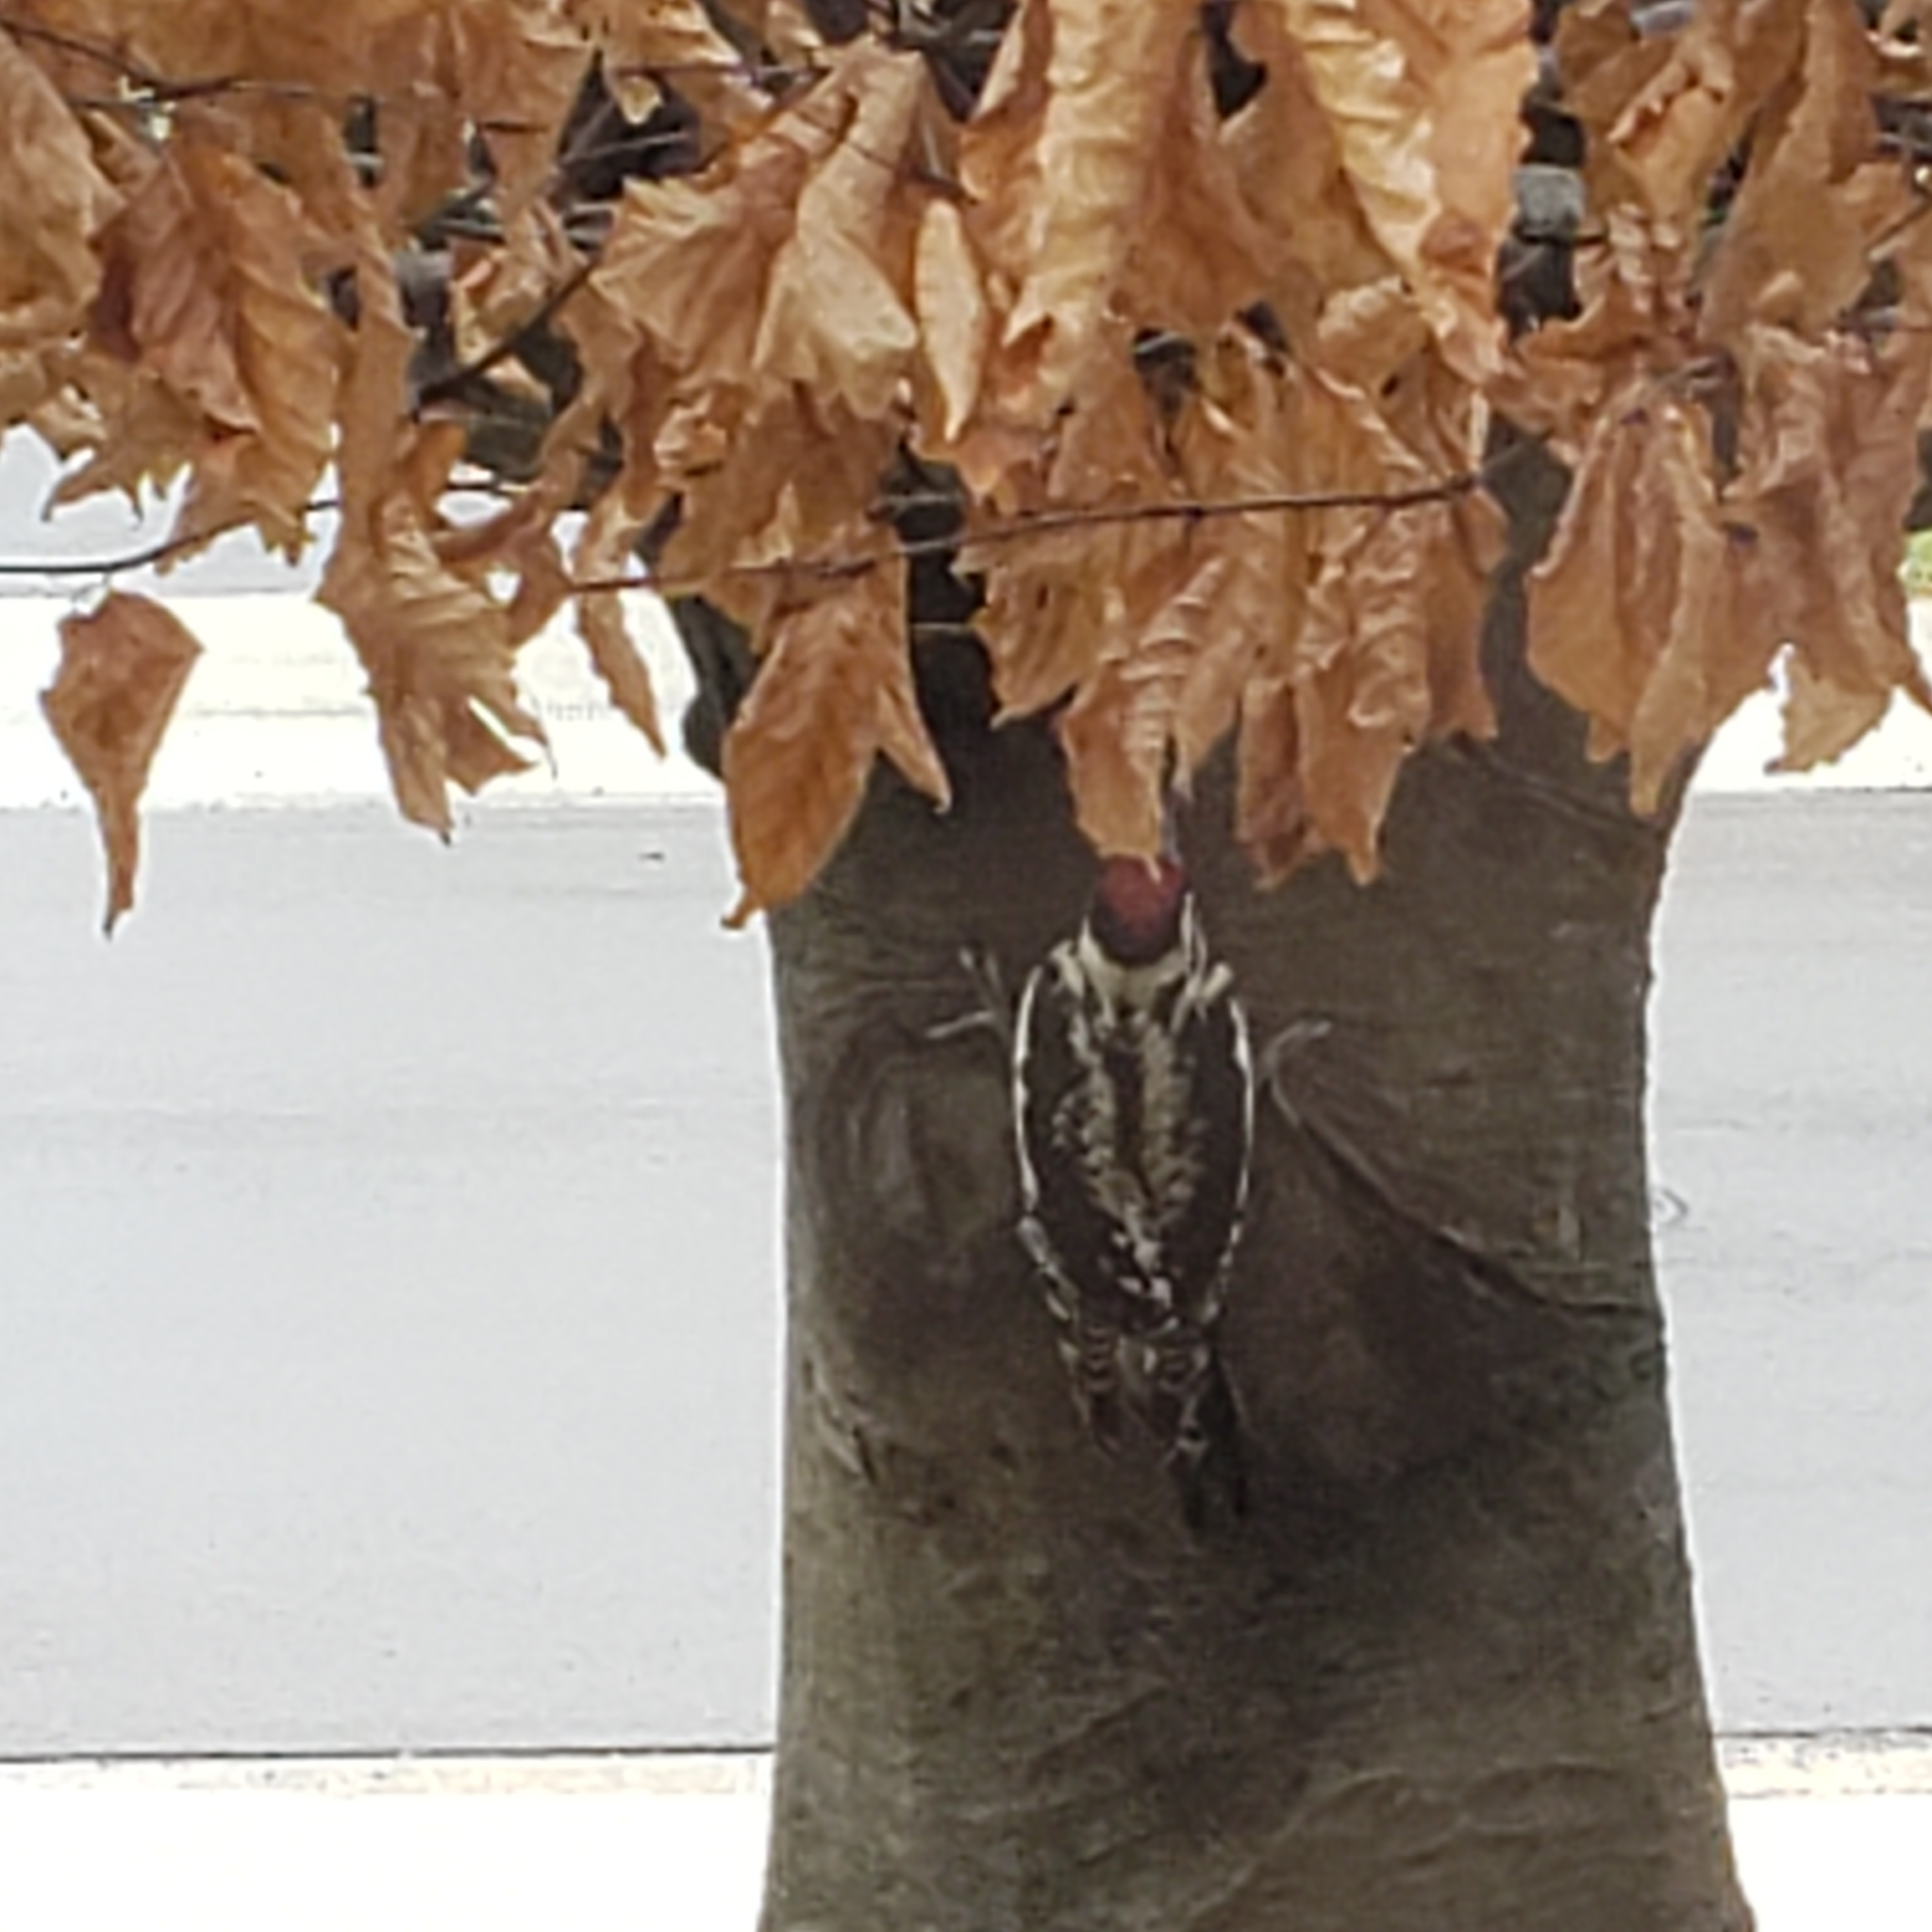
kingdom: Animalia
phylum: Chordata
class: Aves
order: Piciformes
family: Picidae
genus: Sphyrapicus
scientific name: Sphyrapicus varius
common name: Yellow-bellied sapsucker
